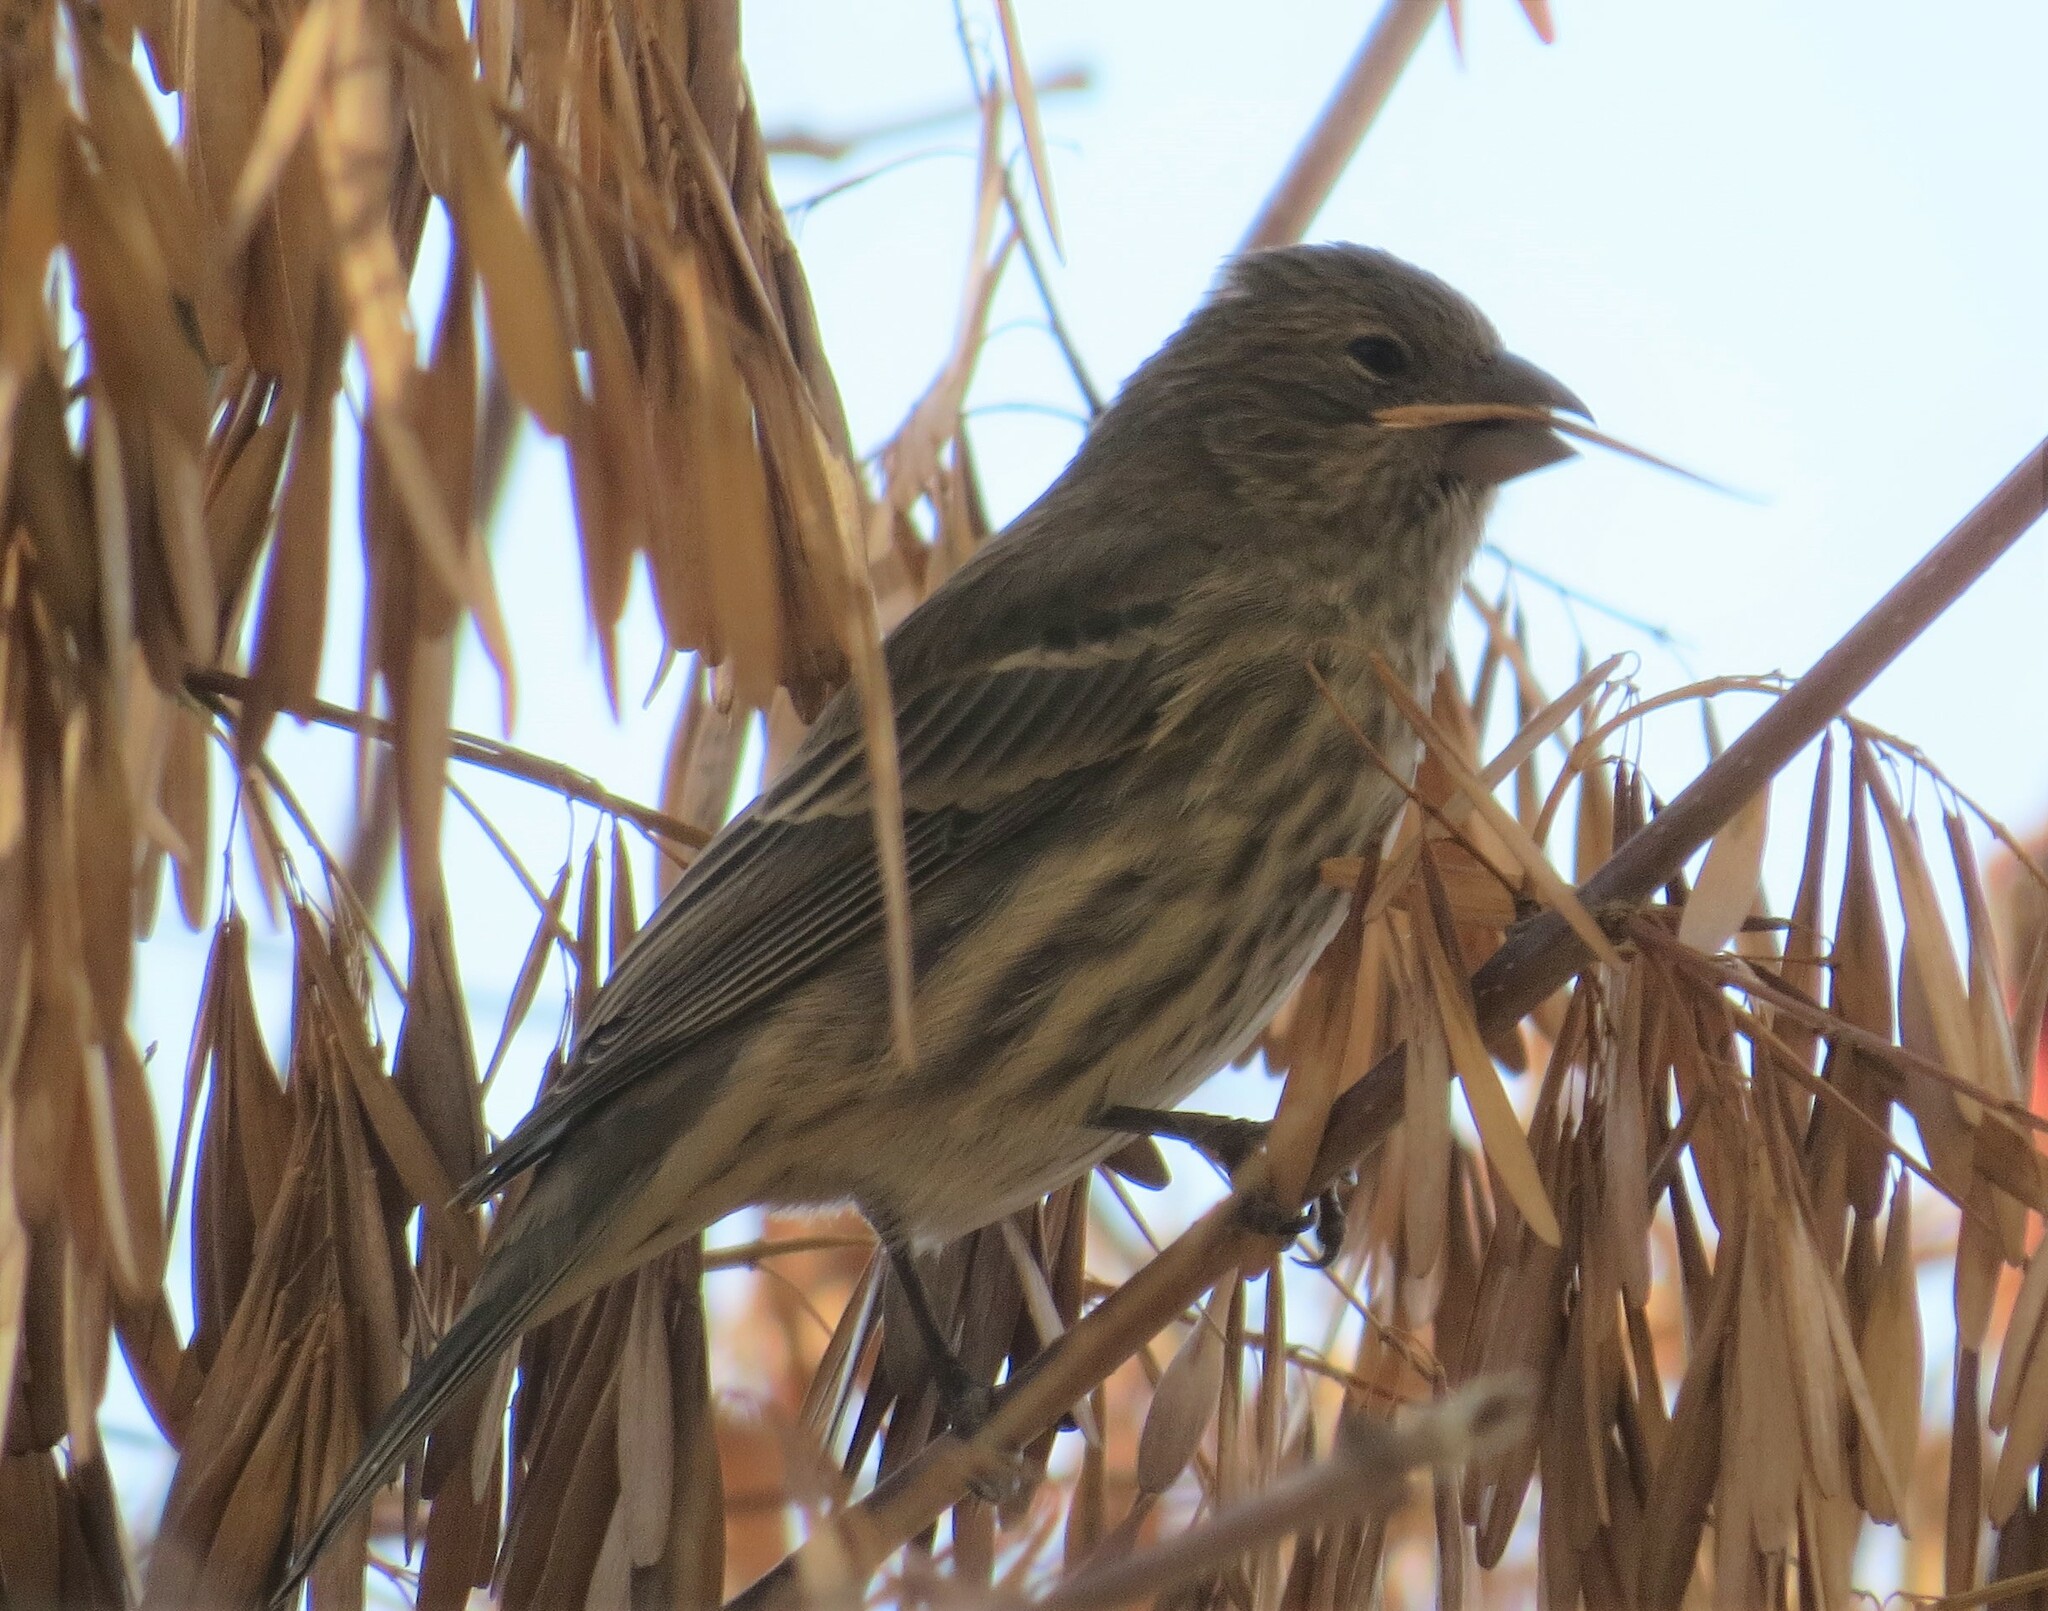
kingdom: Animalia
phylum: Chordata
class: Aves
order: Passeriformes
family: Fringillidae
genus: Haemorhous
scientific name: Haemorhous mexicanus
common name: House finch
